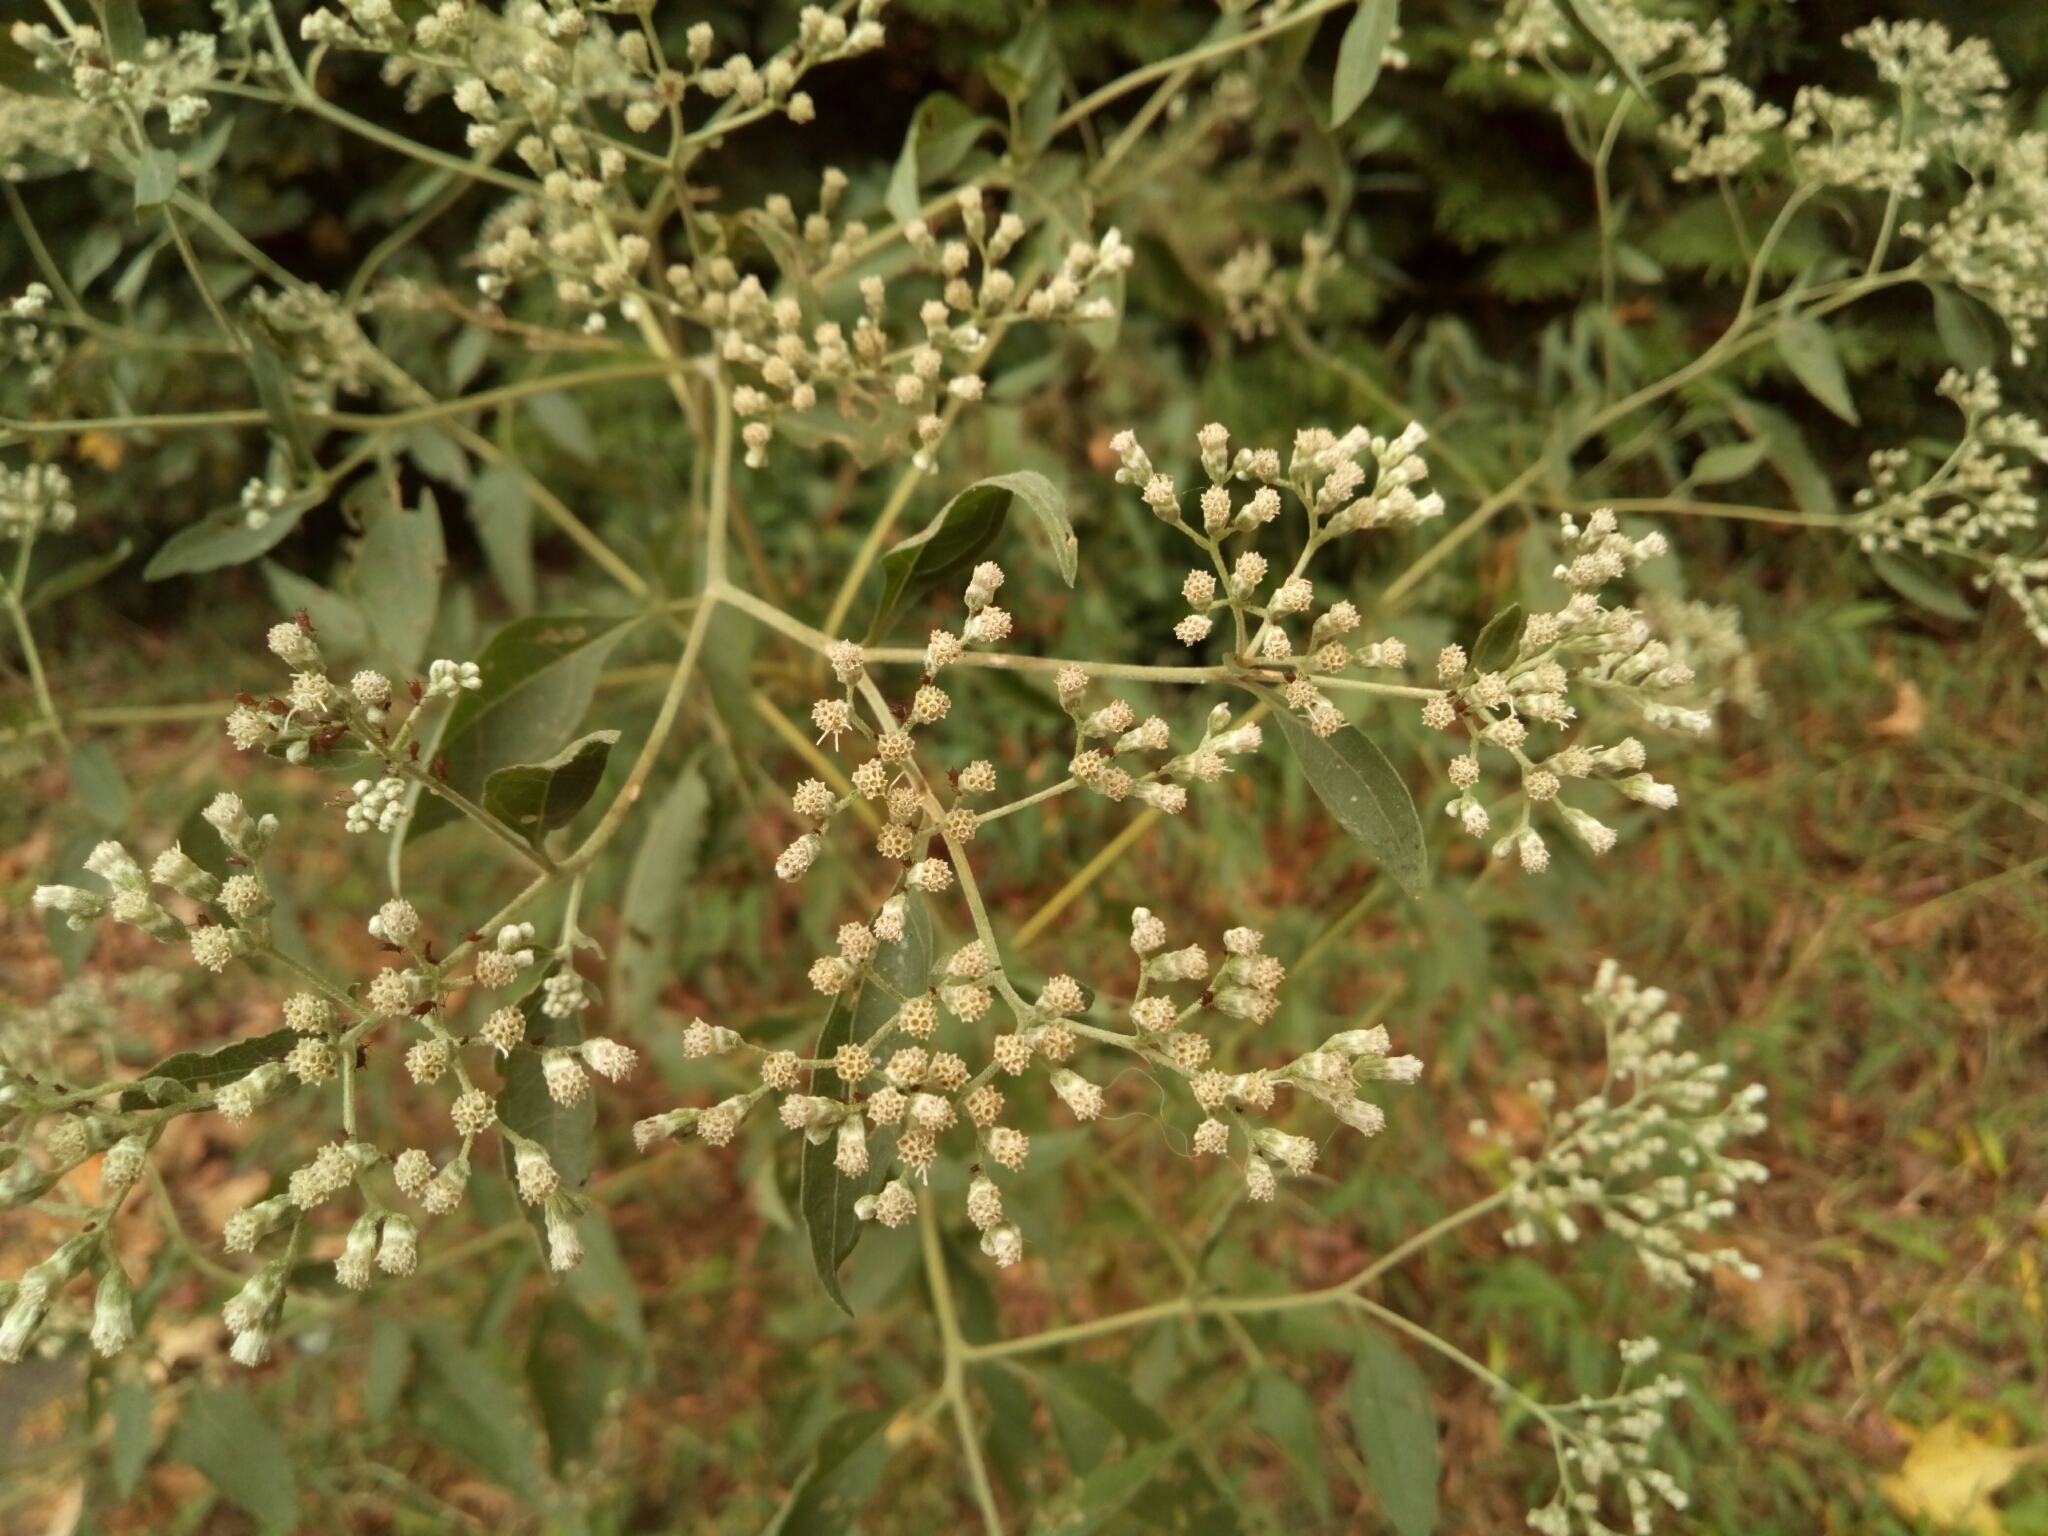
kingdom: Plantae
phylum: Tracheophyta
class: Magnoliopsida
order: Asterales
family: Asteraceae
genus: Eupatorium
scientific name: Eupatorium serotinum
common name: Late boneset
